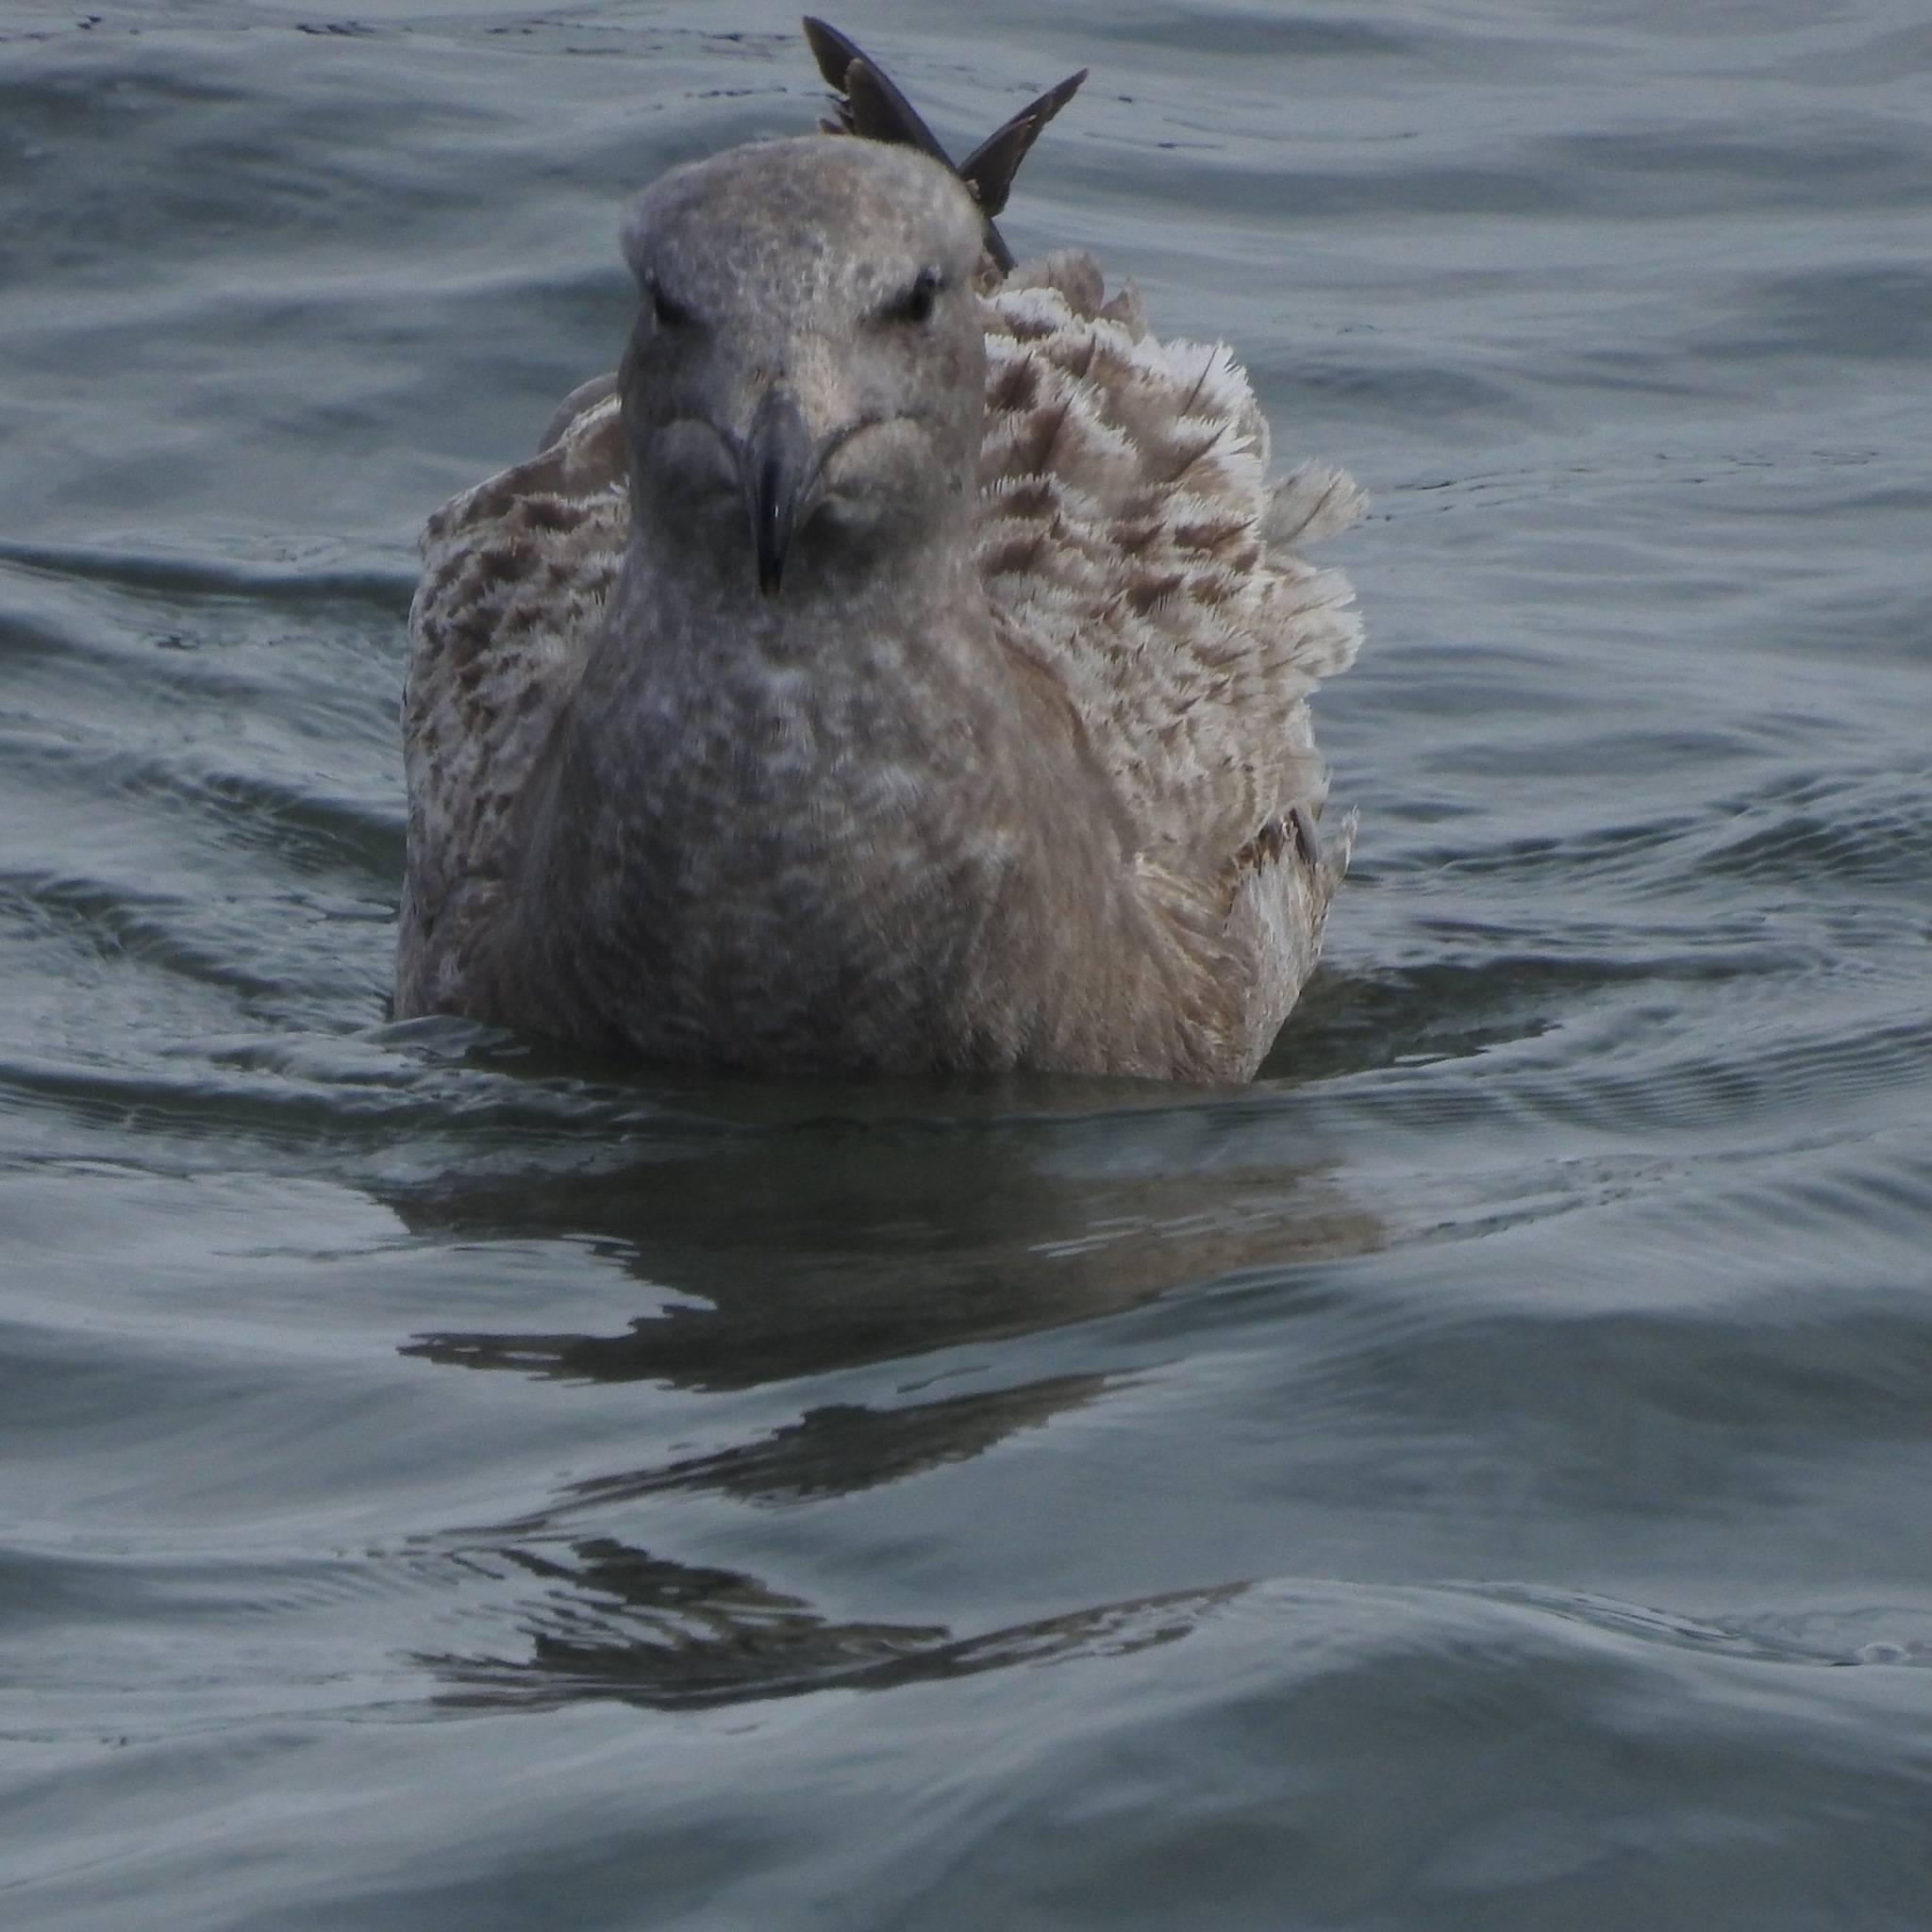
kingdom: Animalia
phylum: Chordata
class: Aves
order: Charadriiformes
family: Laridae
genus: Larus
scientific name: Larus occidentalis
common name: Western gull
